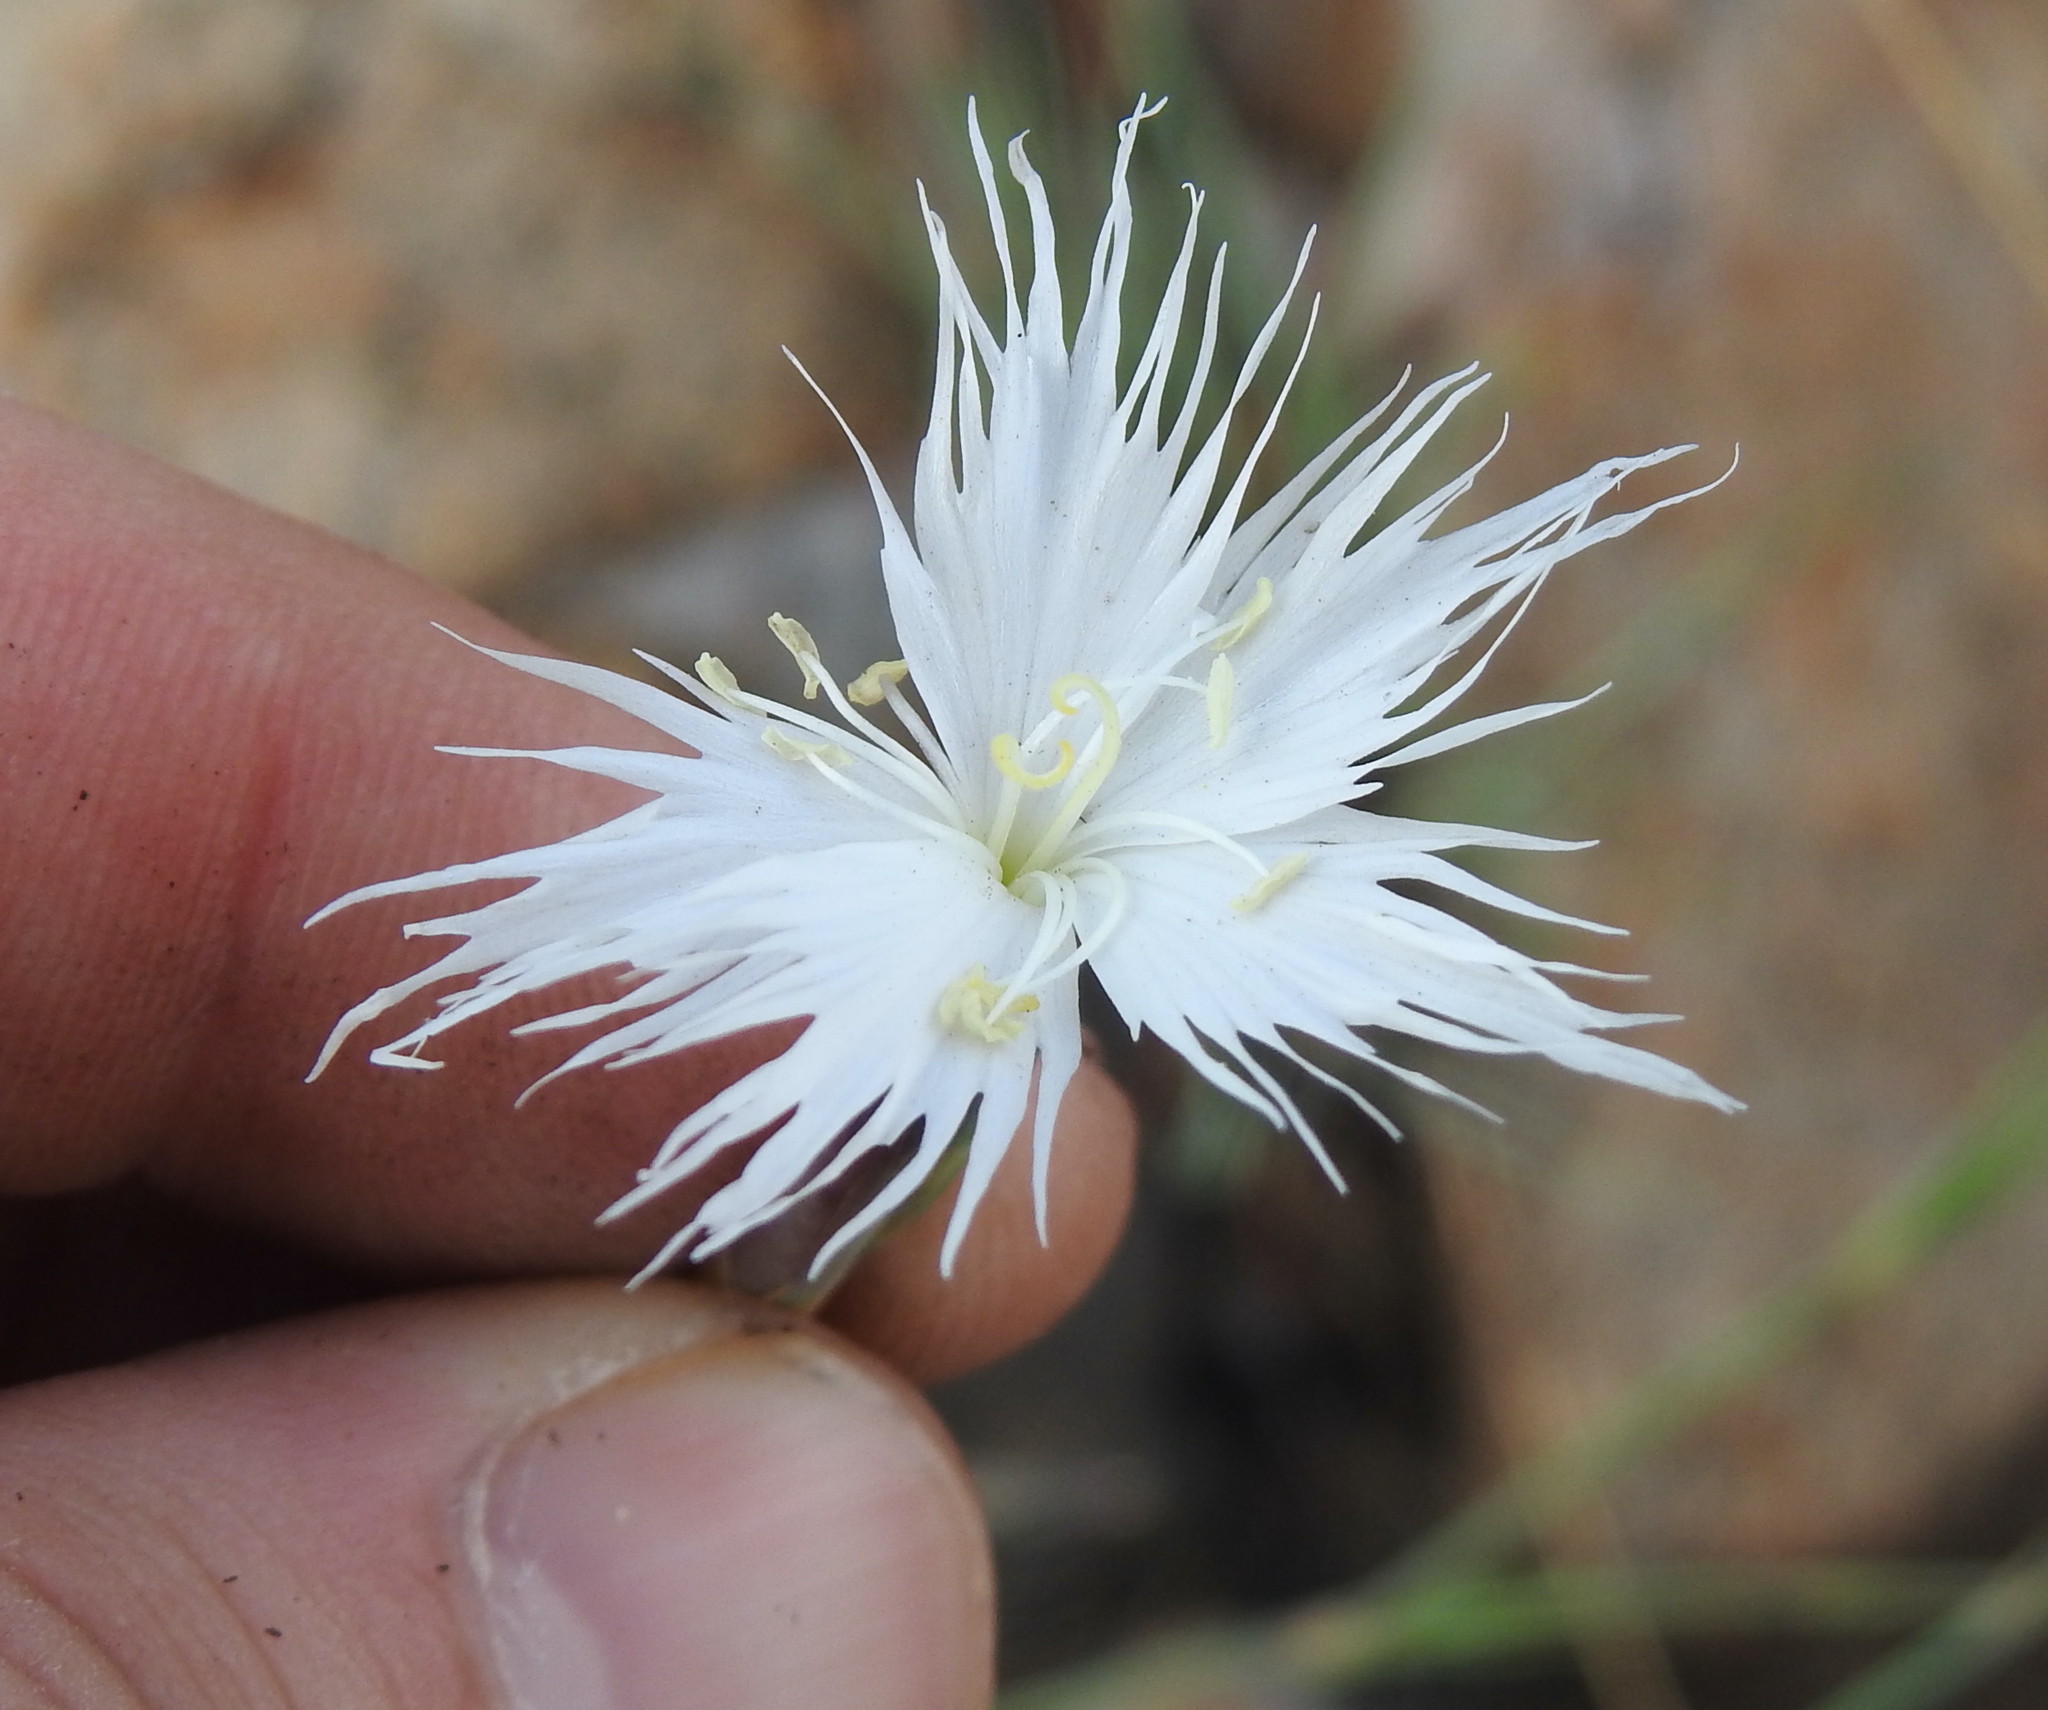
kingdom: Plantae
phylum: Tracheophyta
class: Magnoliopsida
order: Caryophyllales
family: Caryophyllaceae
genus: Dianthus
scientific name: Dianthus mooiensis
